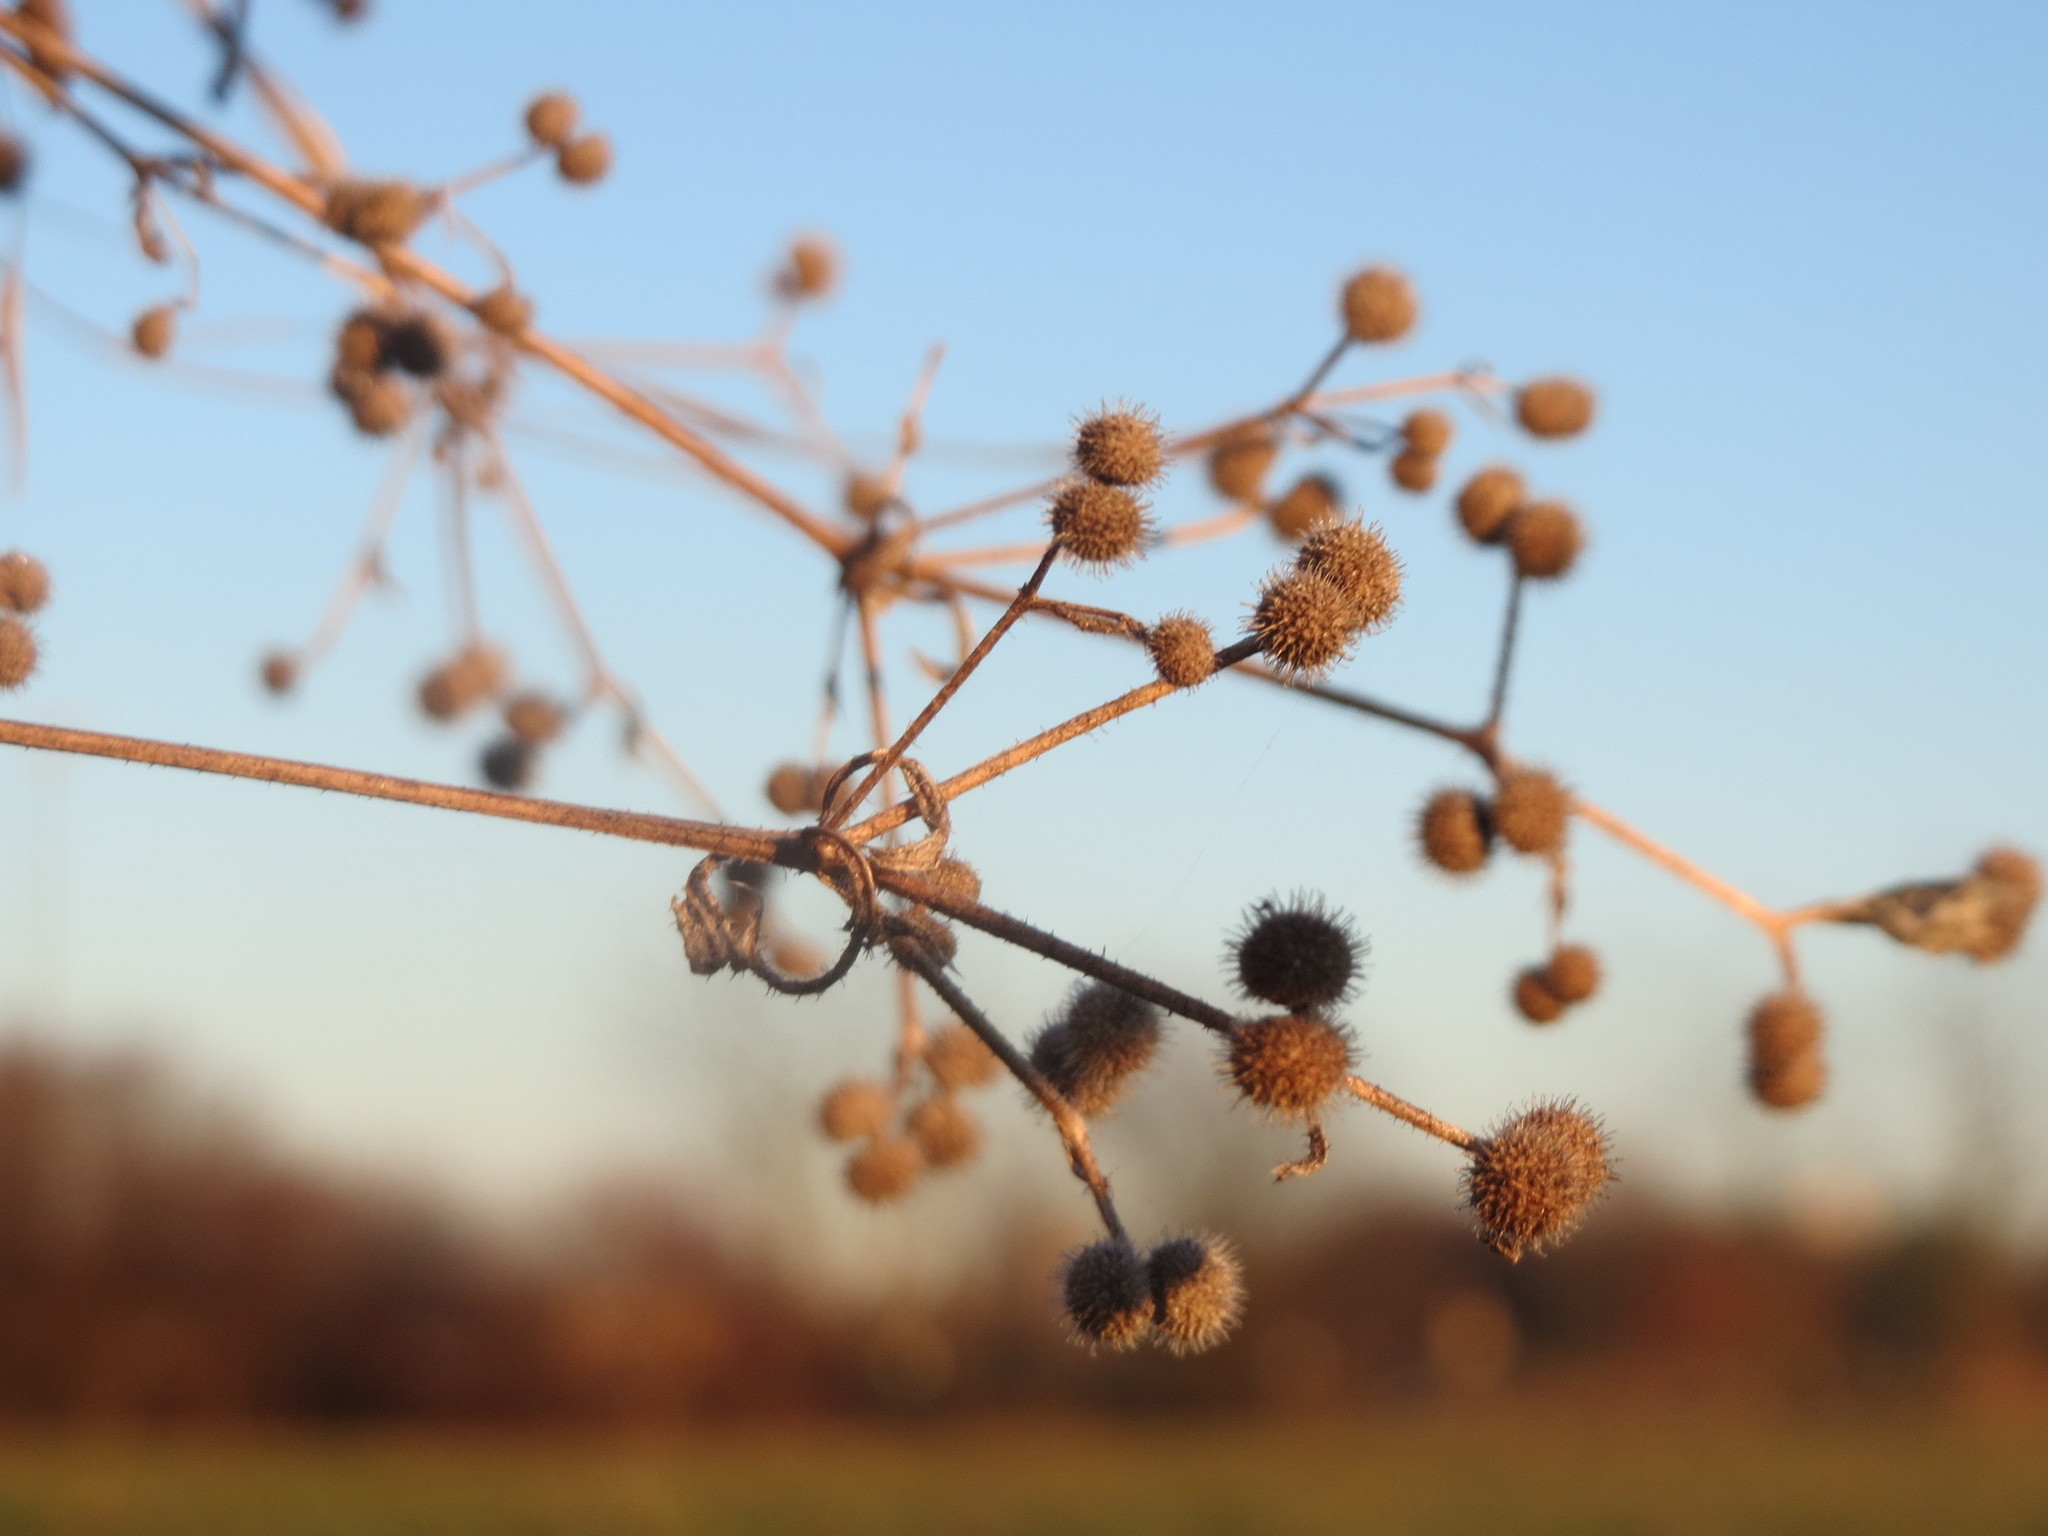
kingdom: Plantae
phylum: Tracheophyta
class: Magnoliopsida
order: Gentianales
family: Rubiaceae
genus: Galium
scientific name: Galium aparine
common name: Cleavers
